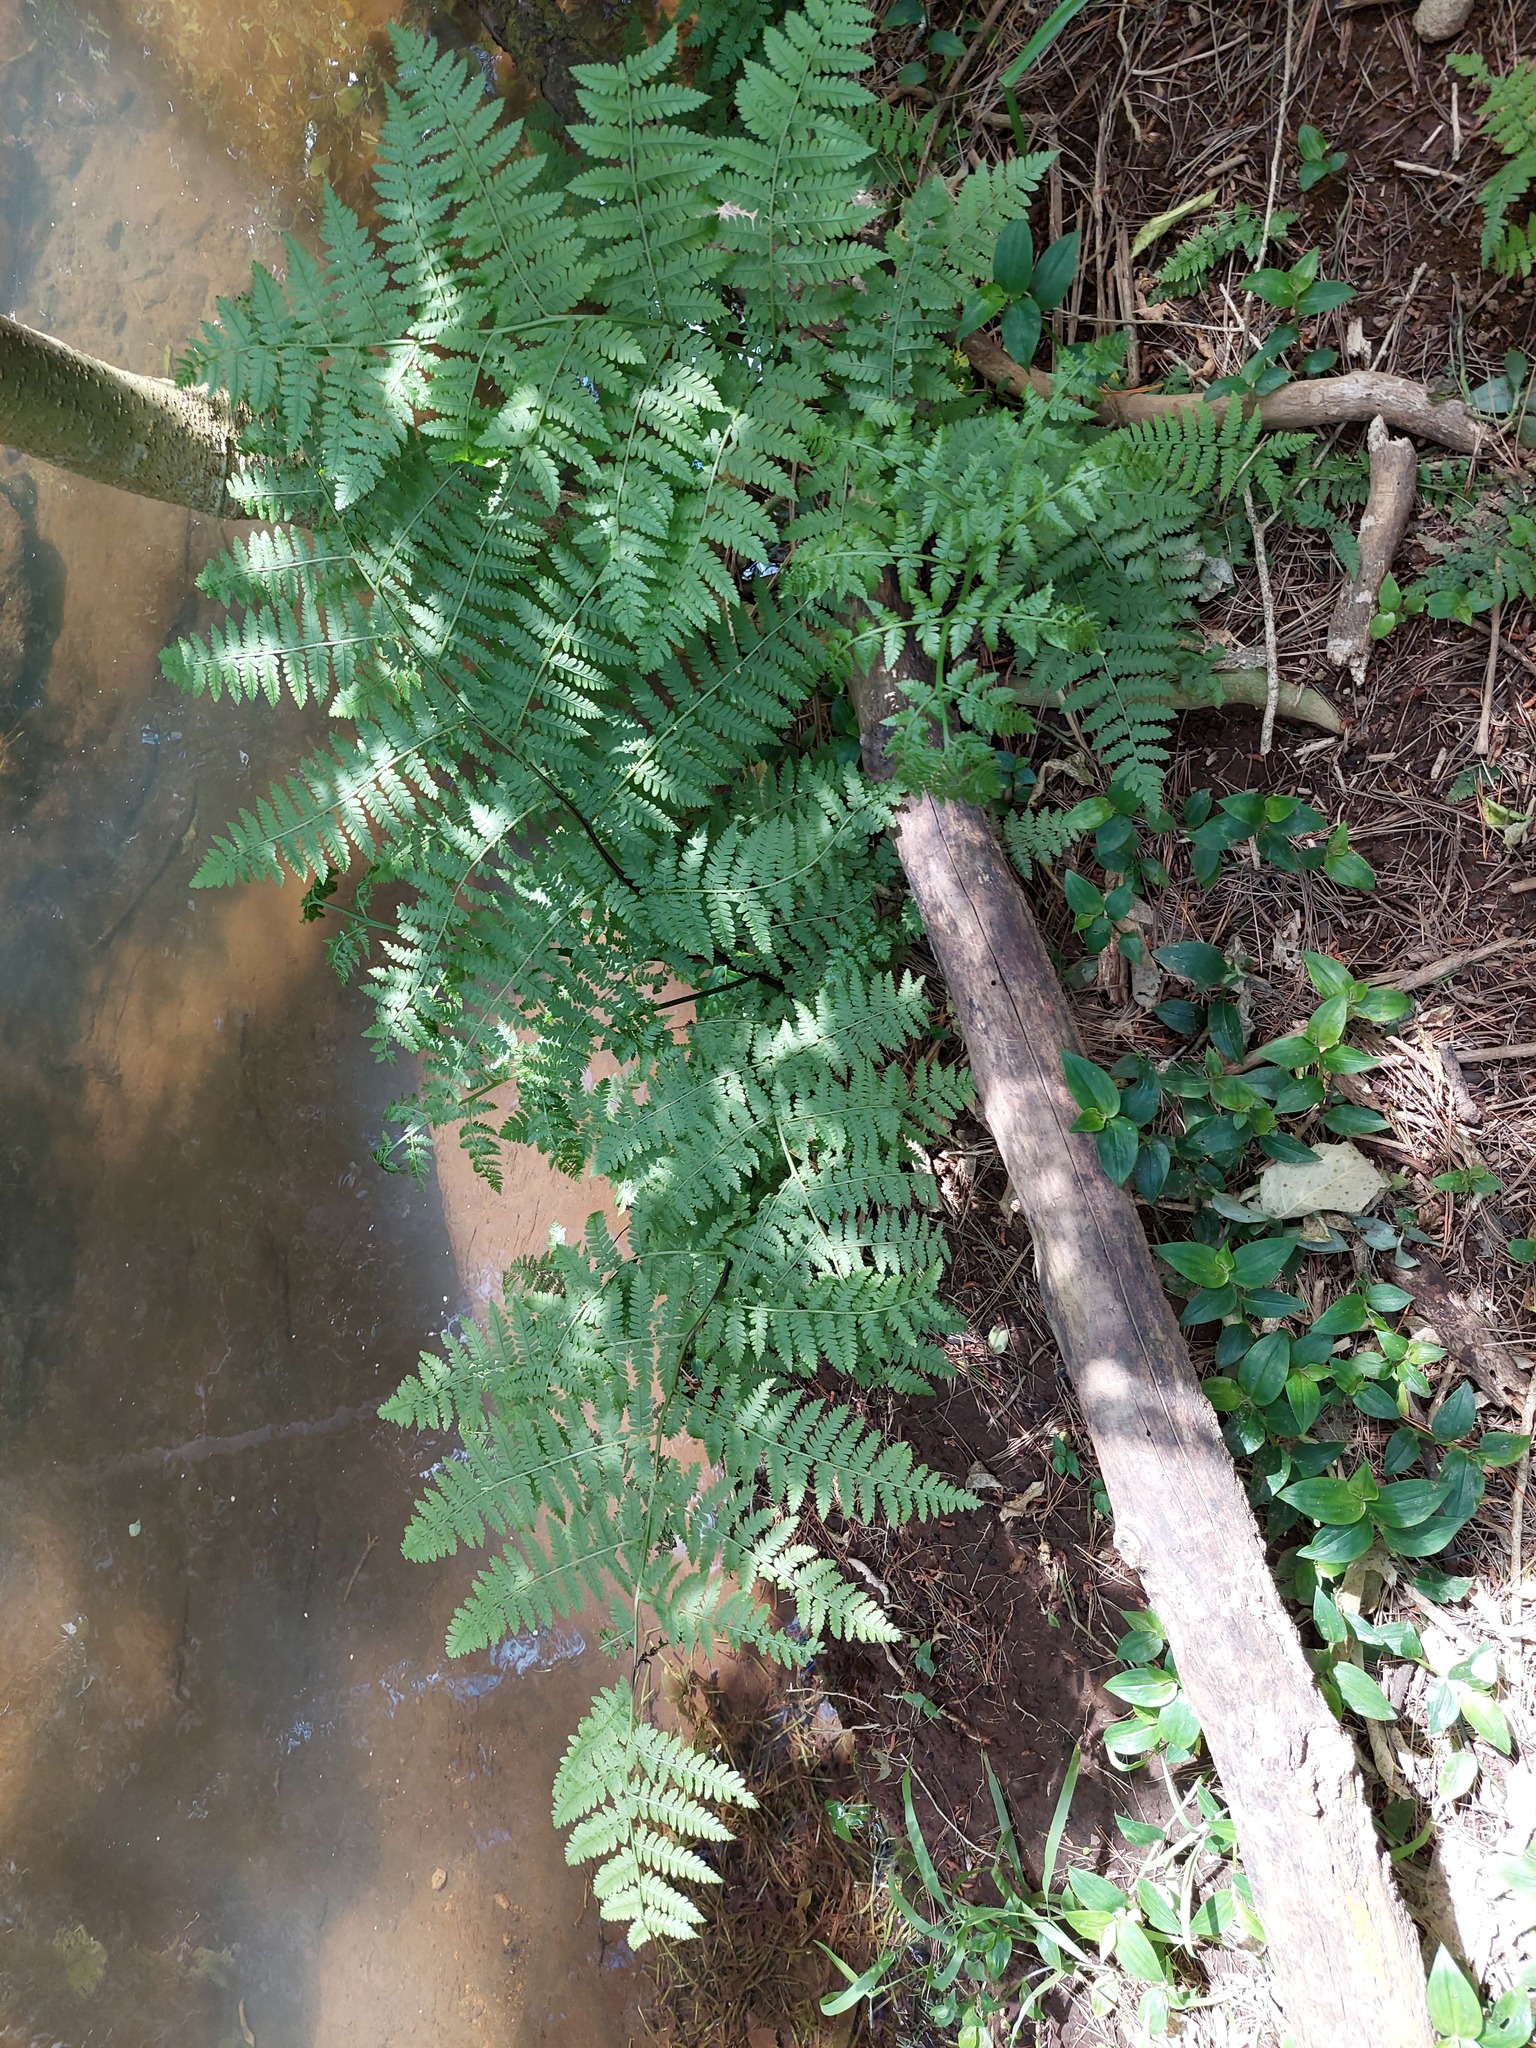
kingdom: Plantae
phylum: Tracheophyta
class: Polypodiopsida
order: Polypodiales
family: Athyriaceae
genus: Diplazium
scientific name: Diplazium australe
